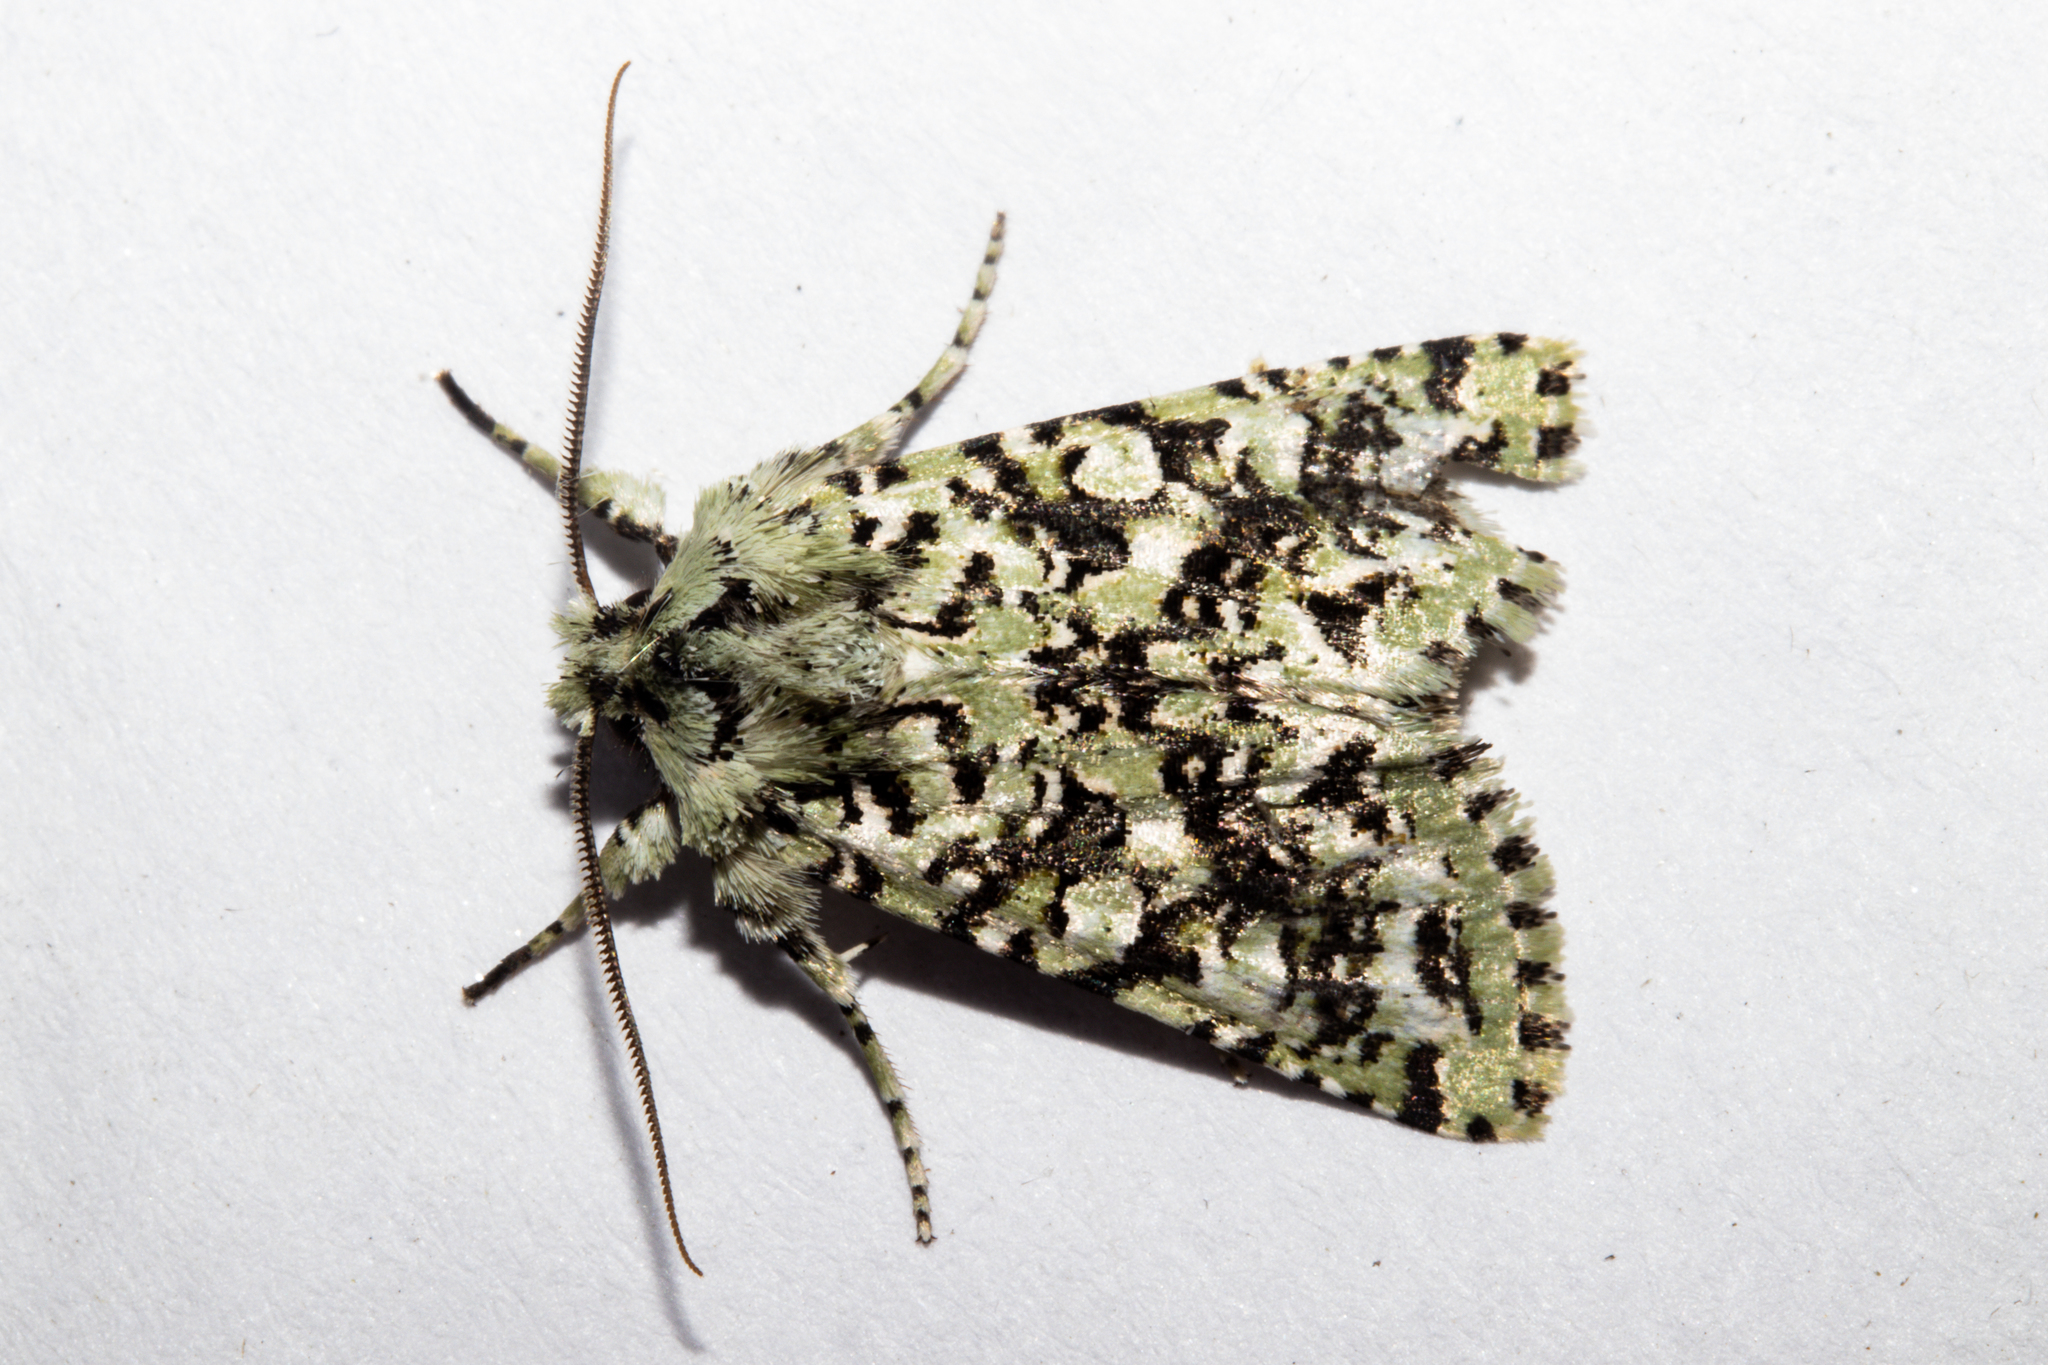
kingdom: Animalia
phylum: Arthropoda
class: Insecta
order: Lepidoptera
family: Noctuidae
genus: Meterana
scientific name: Meterana
